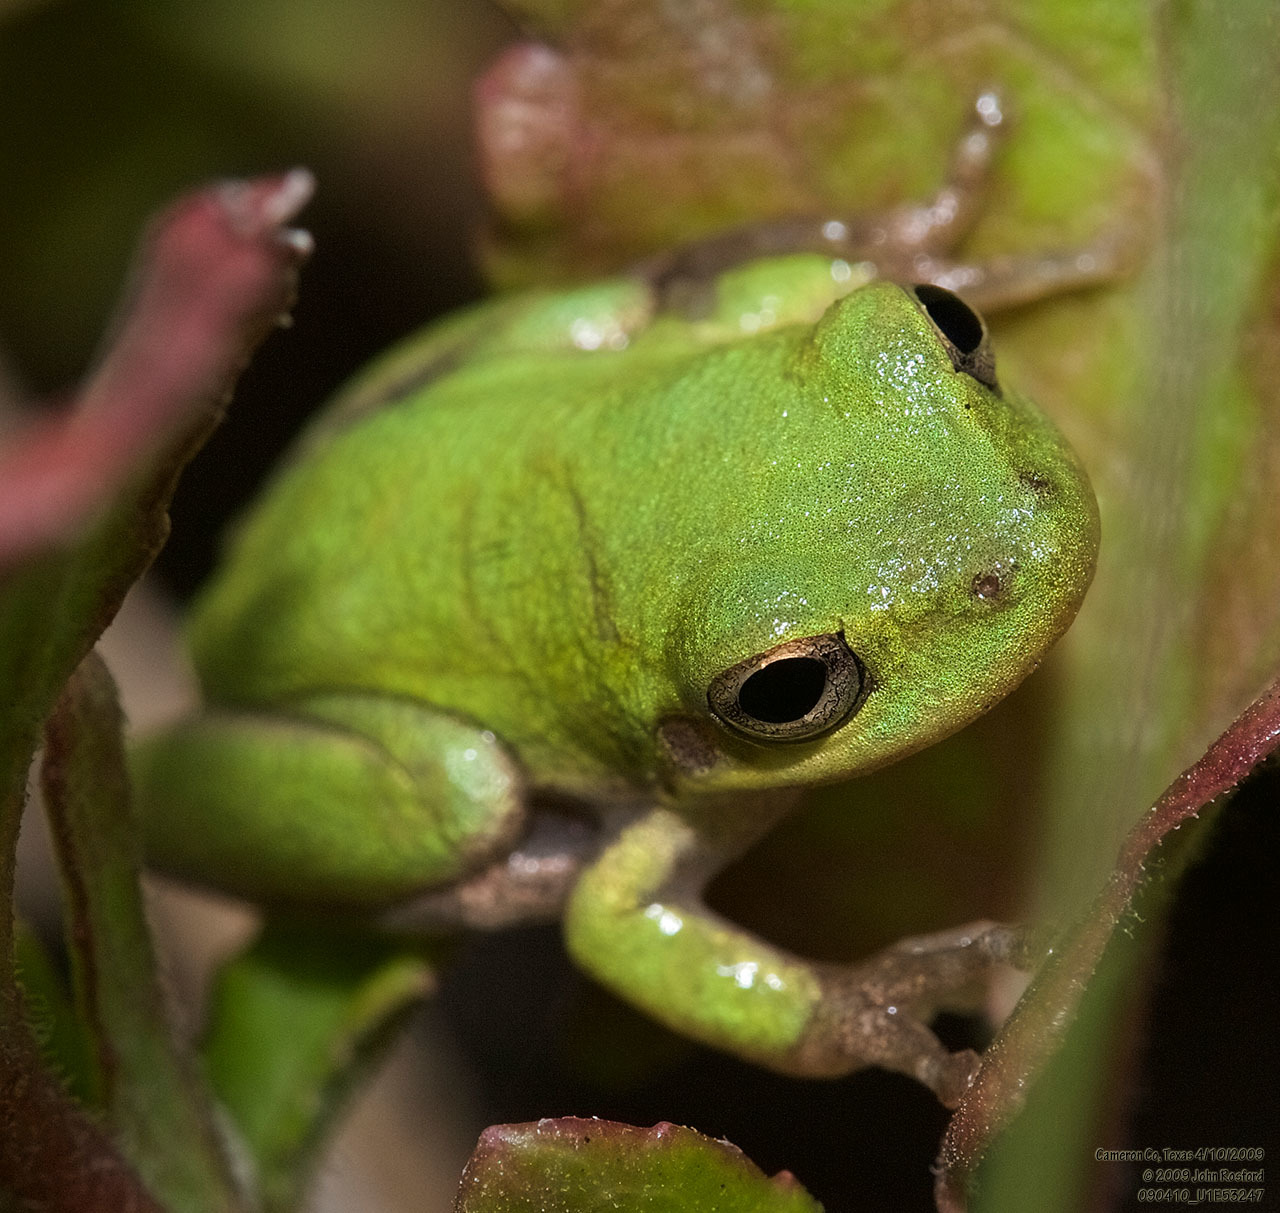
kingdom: Animalia
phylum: Chordata
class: Amphibia
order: Anura
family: Hylidae
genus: Dryophytes
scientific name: Dryophytes squirellus
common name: Squirrel treefrog
